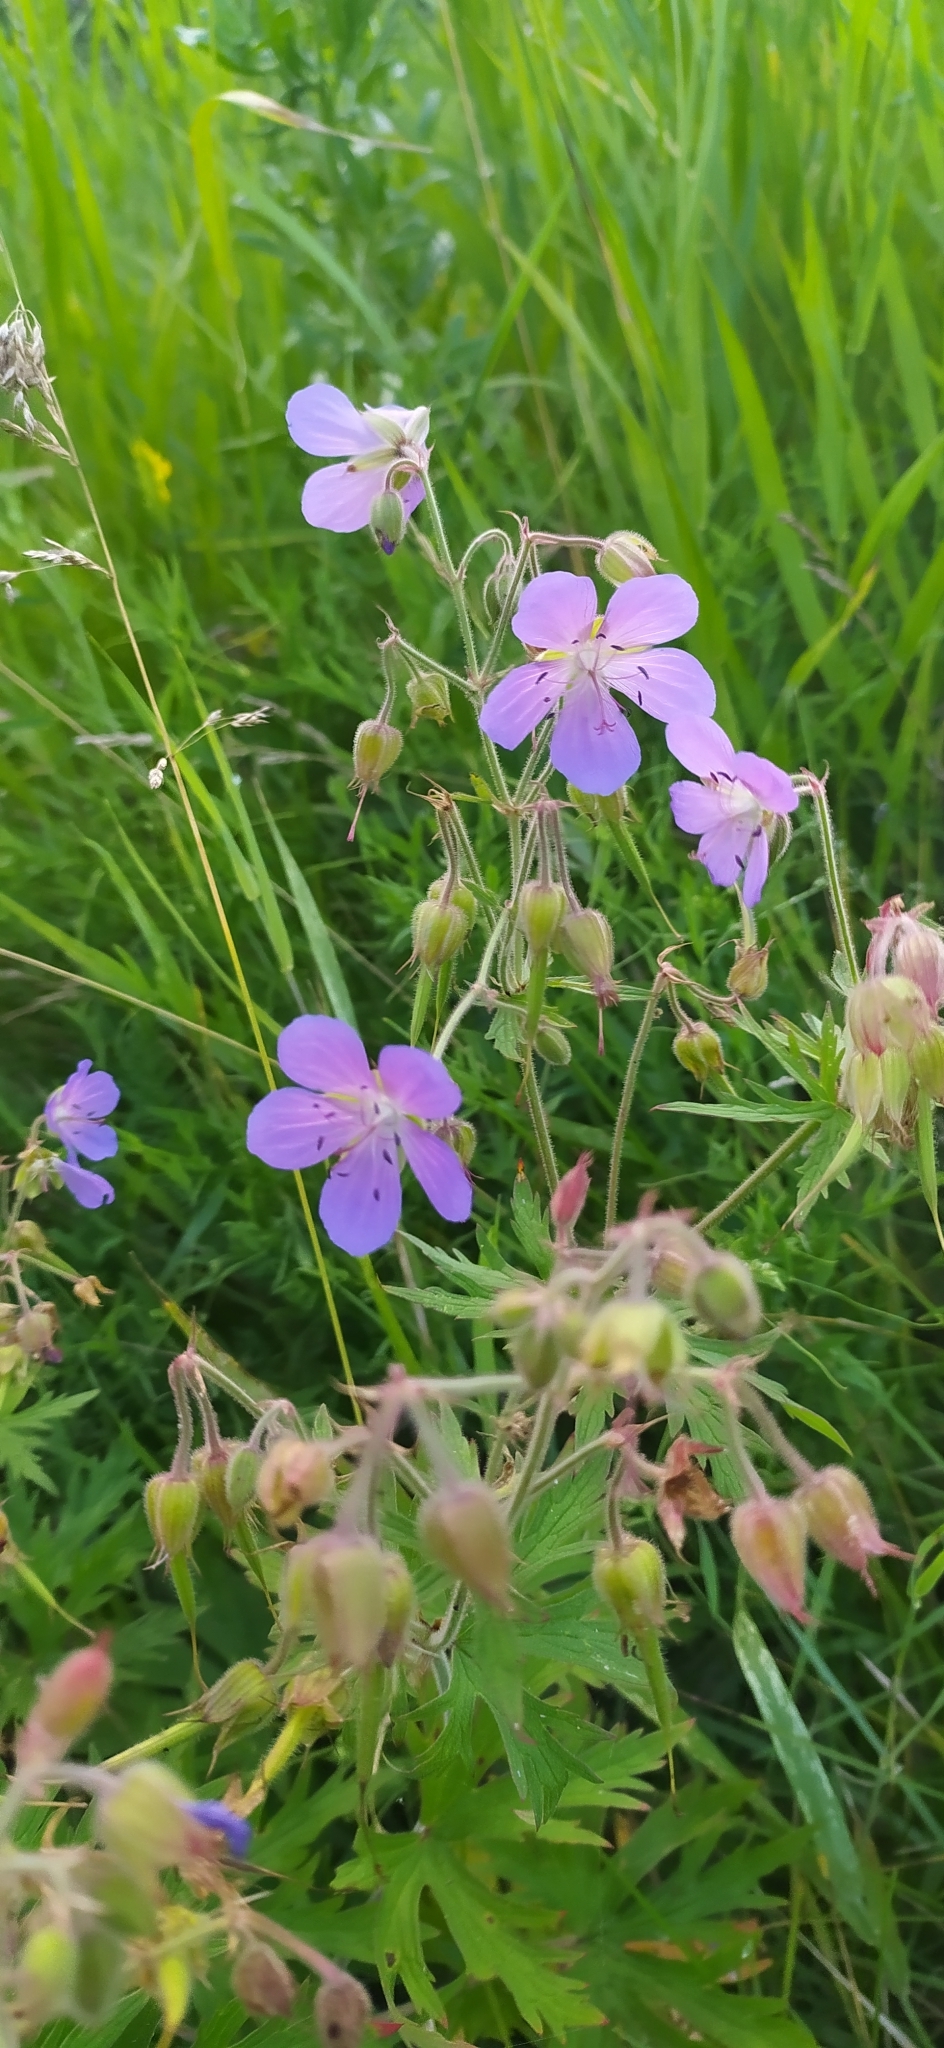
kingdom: Plantae
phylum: Tracheophyta
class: Magnoliopsida
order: Geraniales
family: Geraniaceae
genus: Geranium
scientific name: Geranium pratense
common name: Meadow crane's-bill
